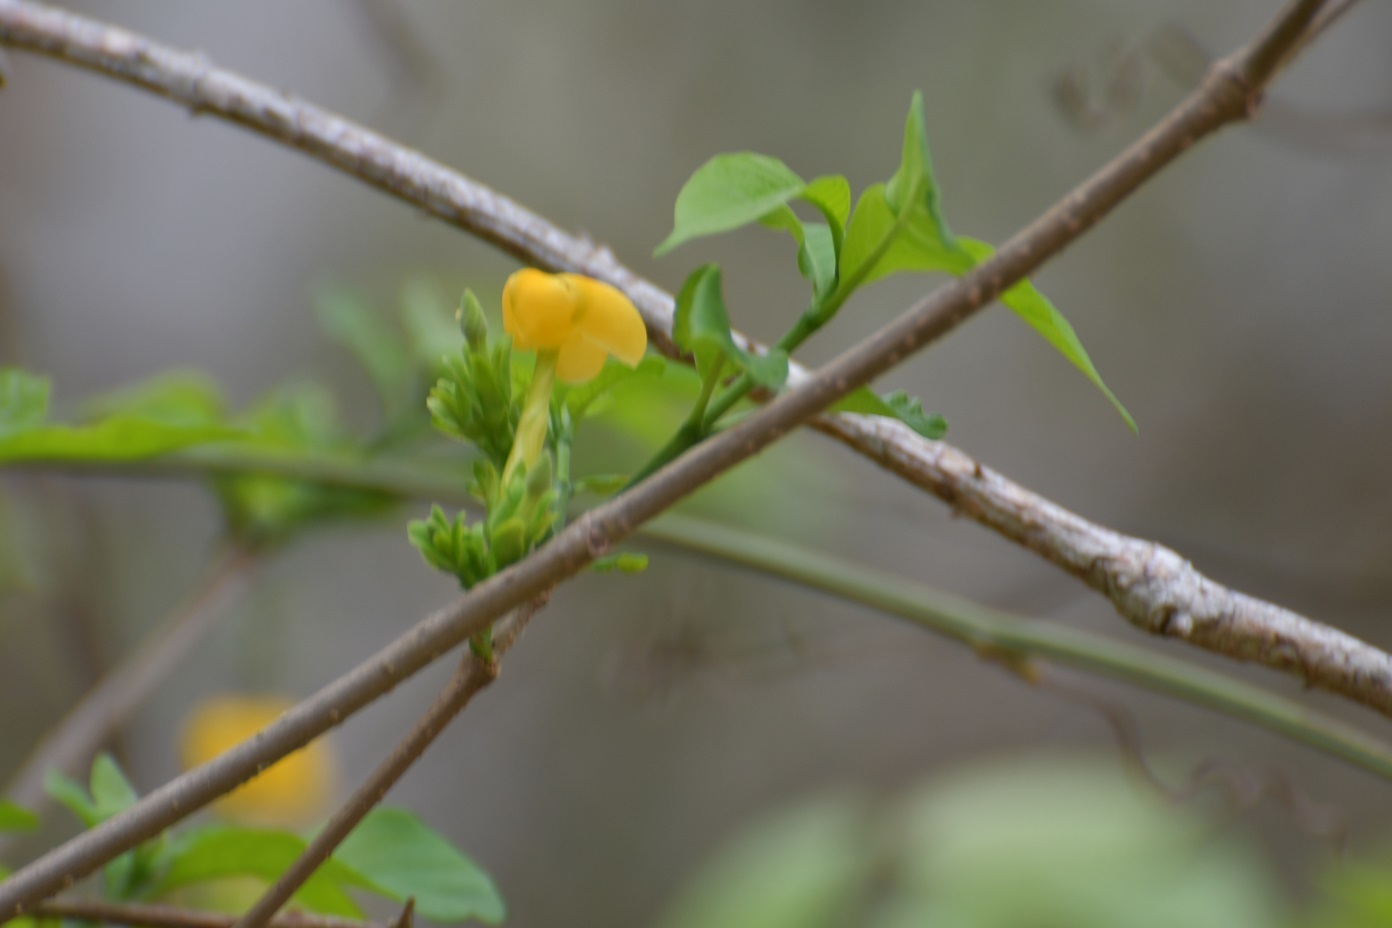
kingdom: Plantae
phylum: Tracheophyta
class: Magnoliopsida
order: Gentianales
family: Apocynaceae
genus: Tabernaemontana
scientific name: Tabernaemontana hannae
